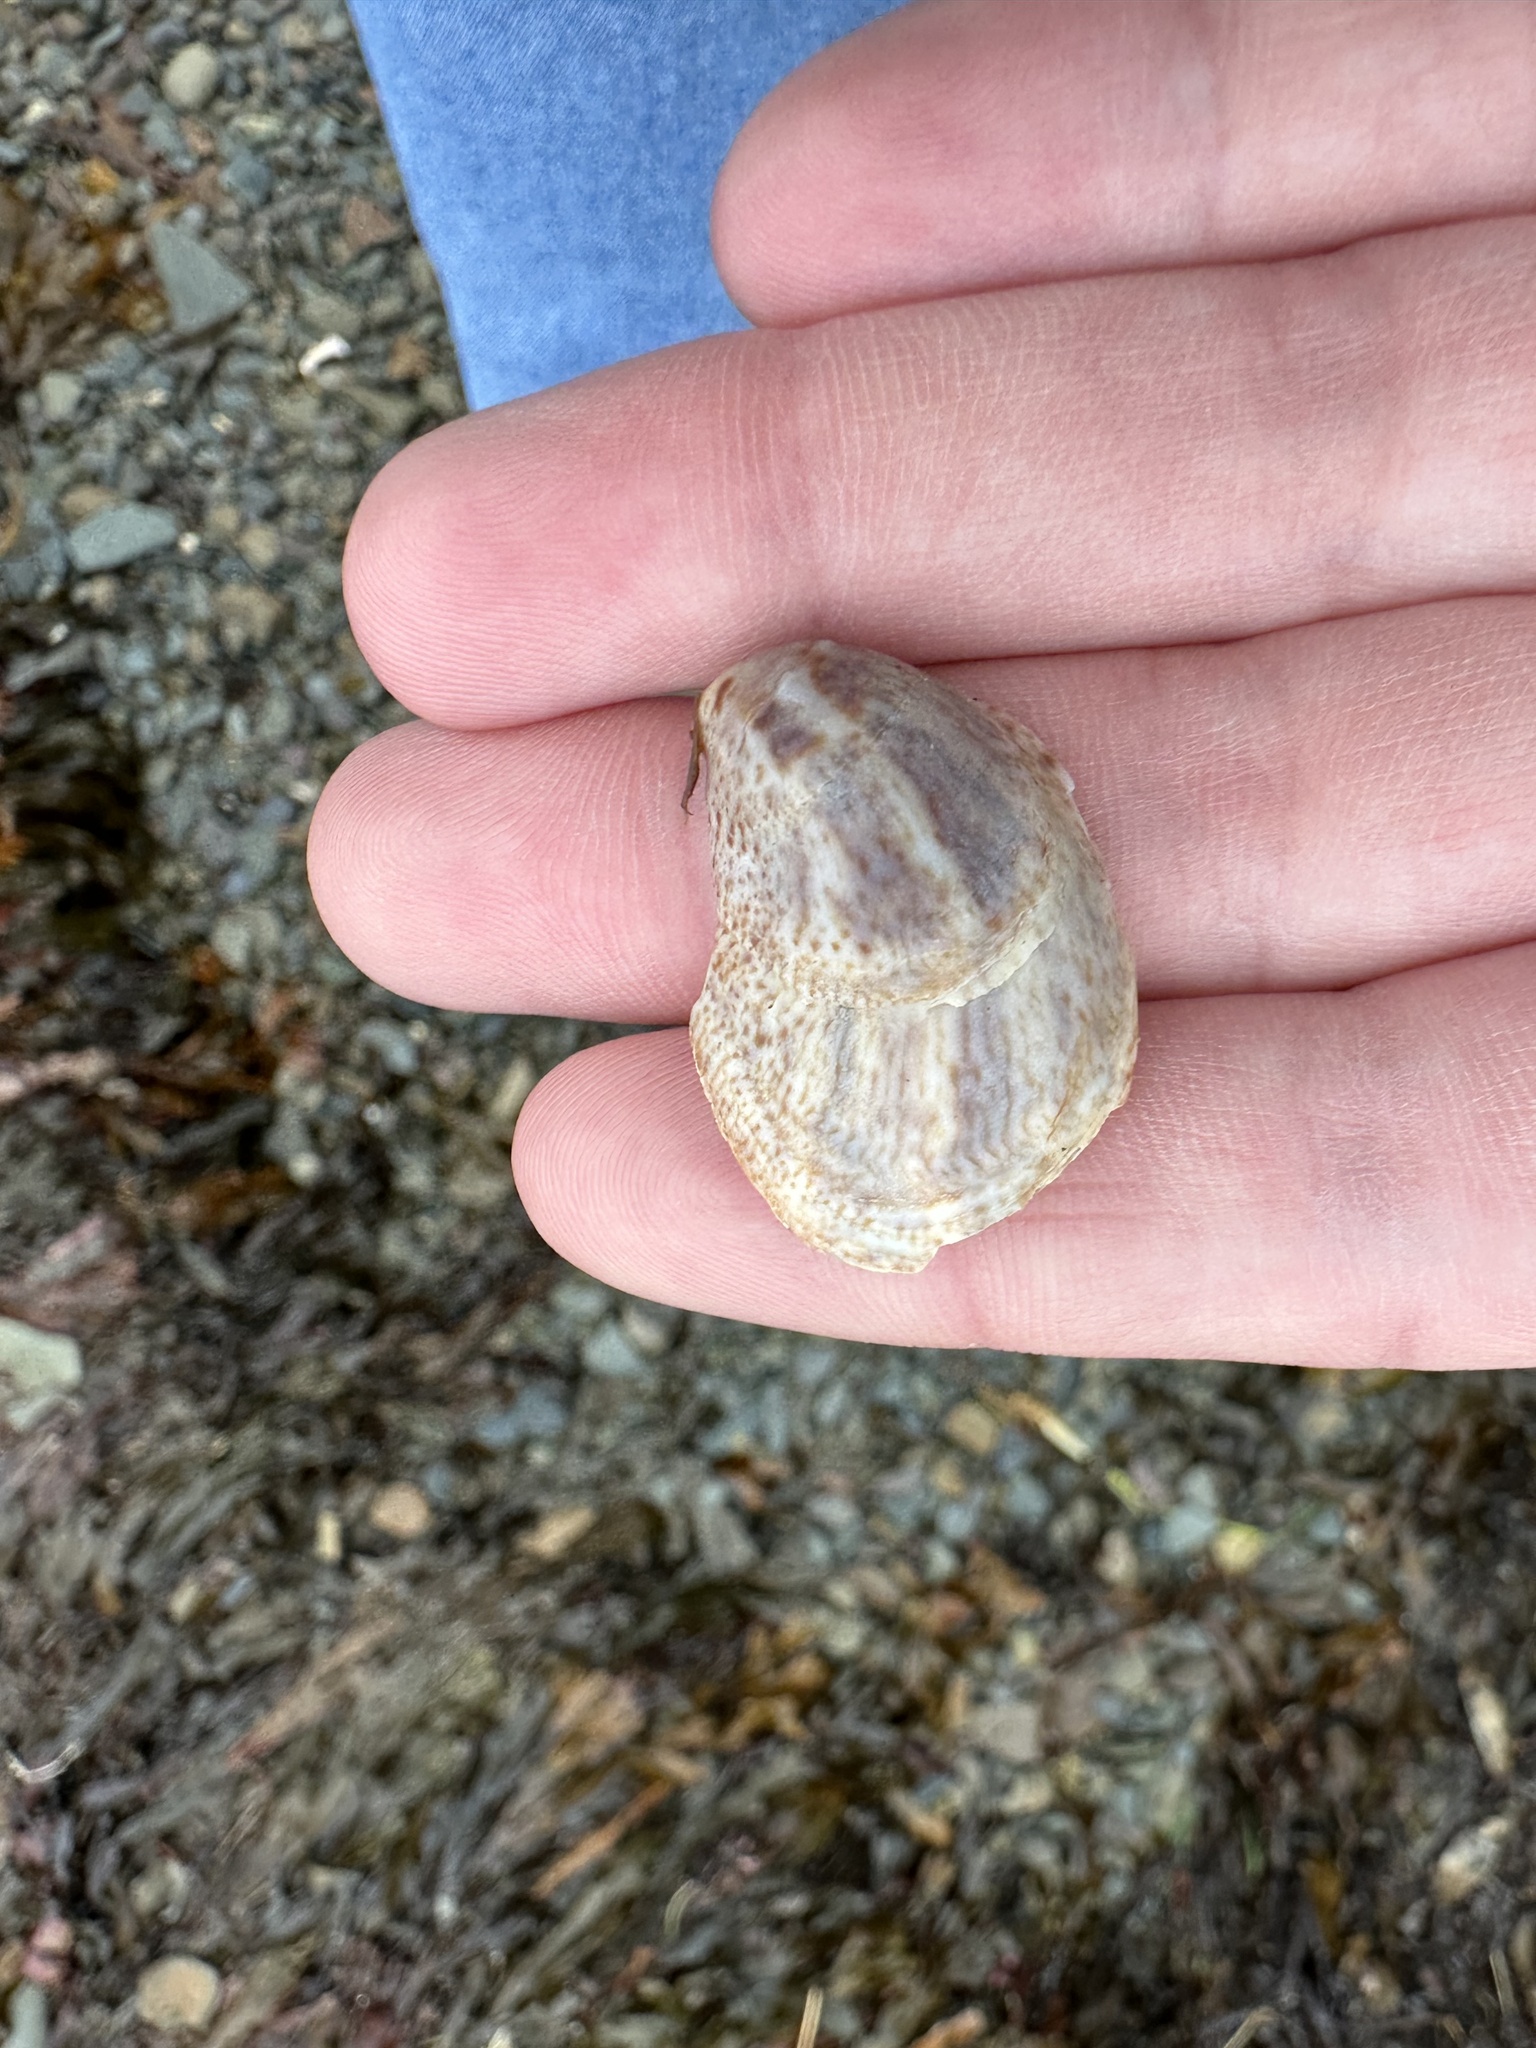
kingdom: Animalia
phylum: Mollusca
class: Gastropoda
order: Littorinimorpha
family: Calyptraeidae
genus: Crepidula
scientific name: Crepidula fornicata
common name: Slipper limpet
